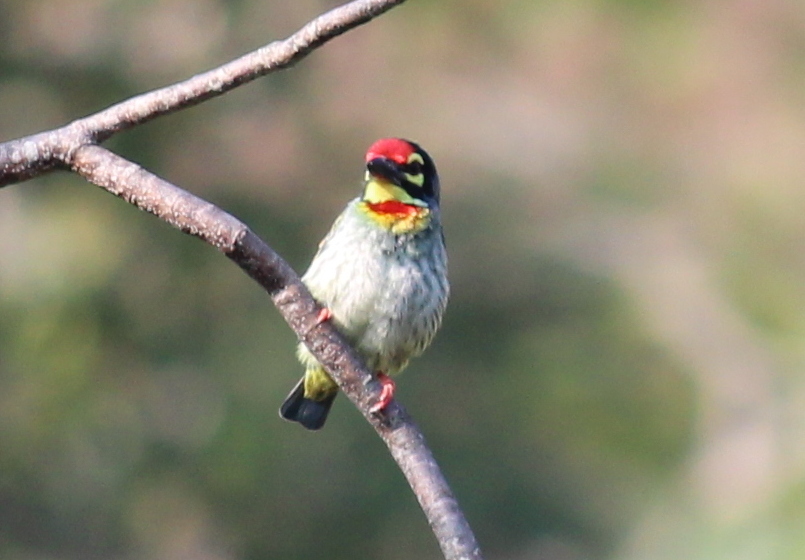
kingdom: Animalia
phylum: Chordata
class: Aves
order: Piciformes
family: Megalaimidae
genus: Psilopogon
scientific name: Psilopogon haemacephalus
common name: Coppersmith barbet
